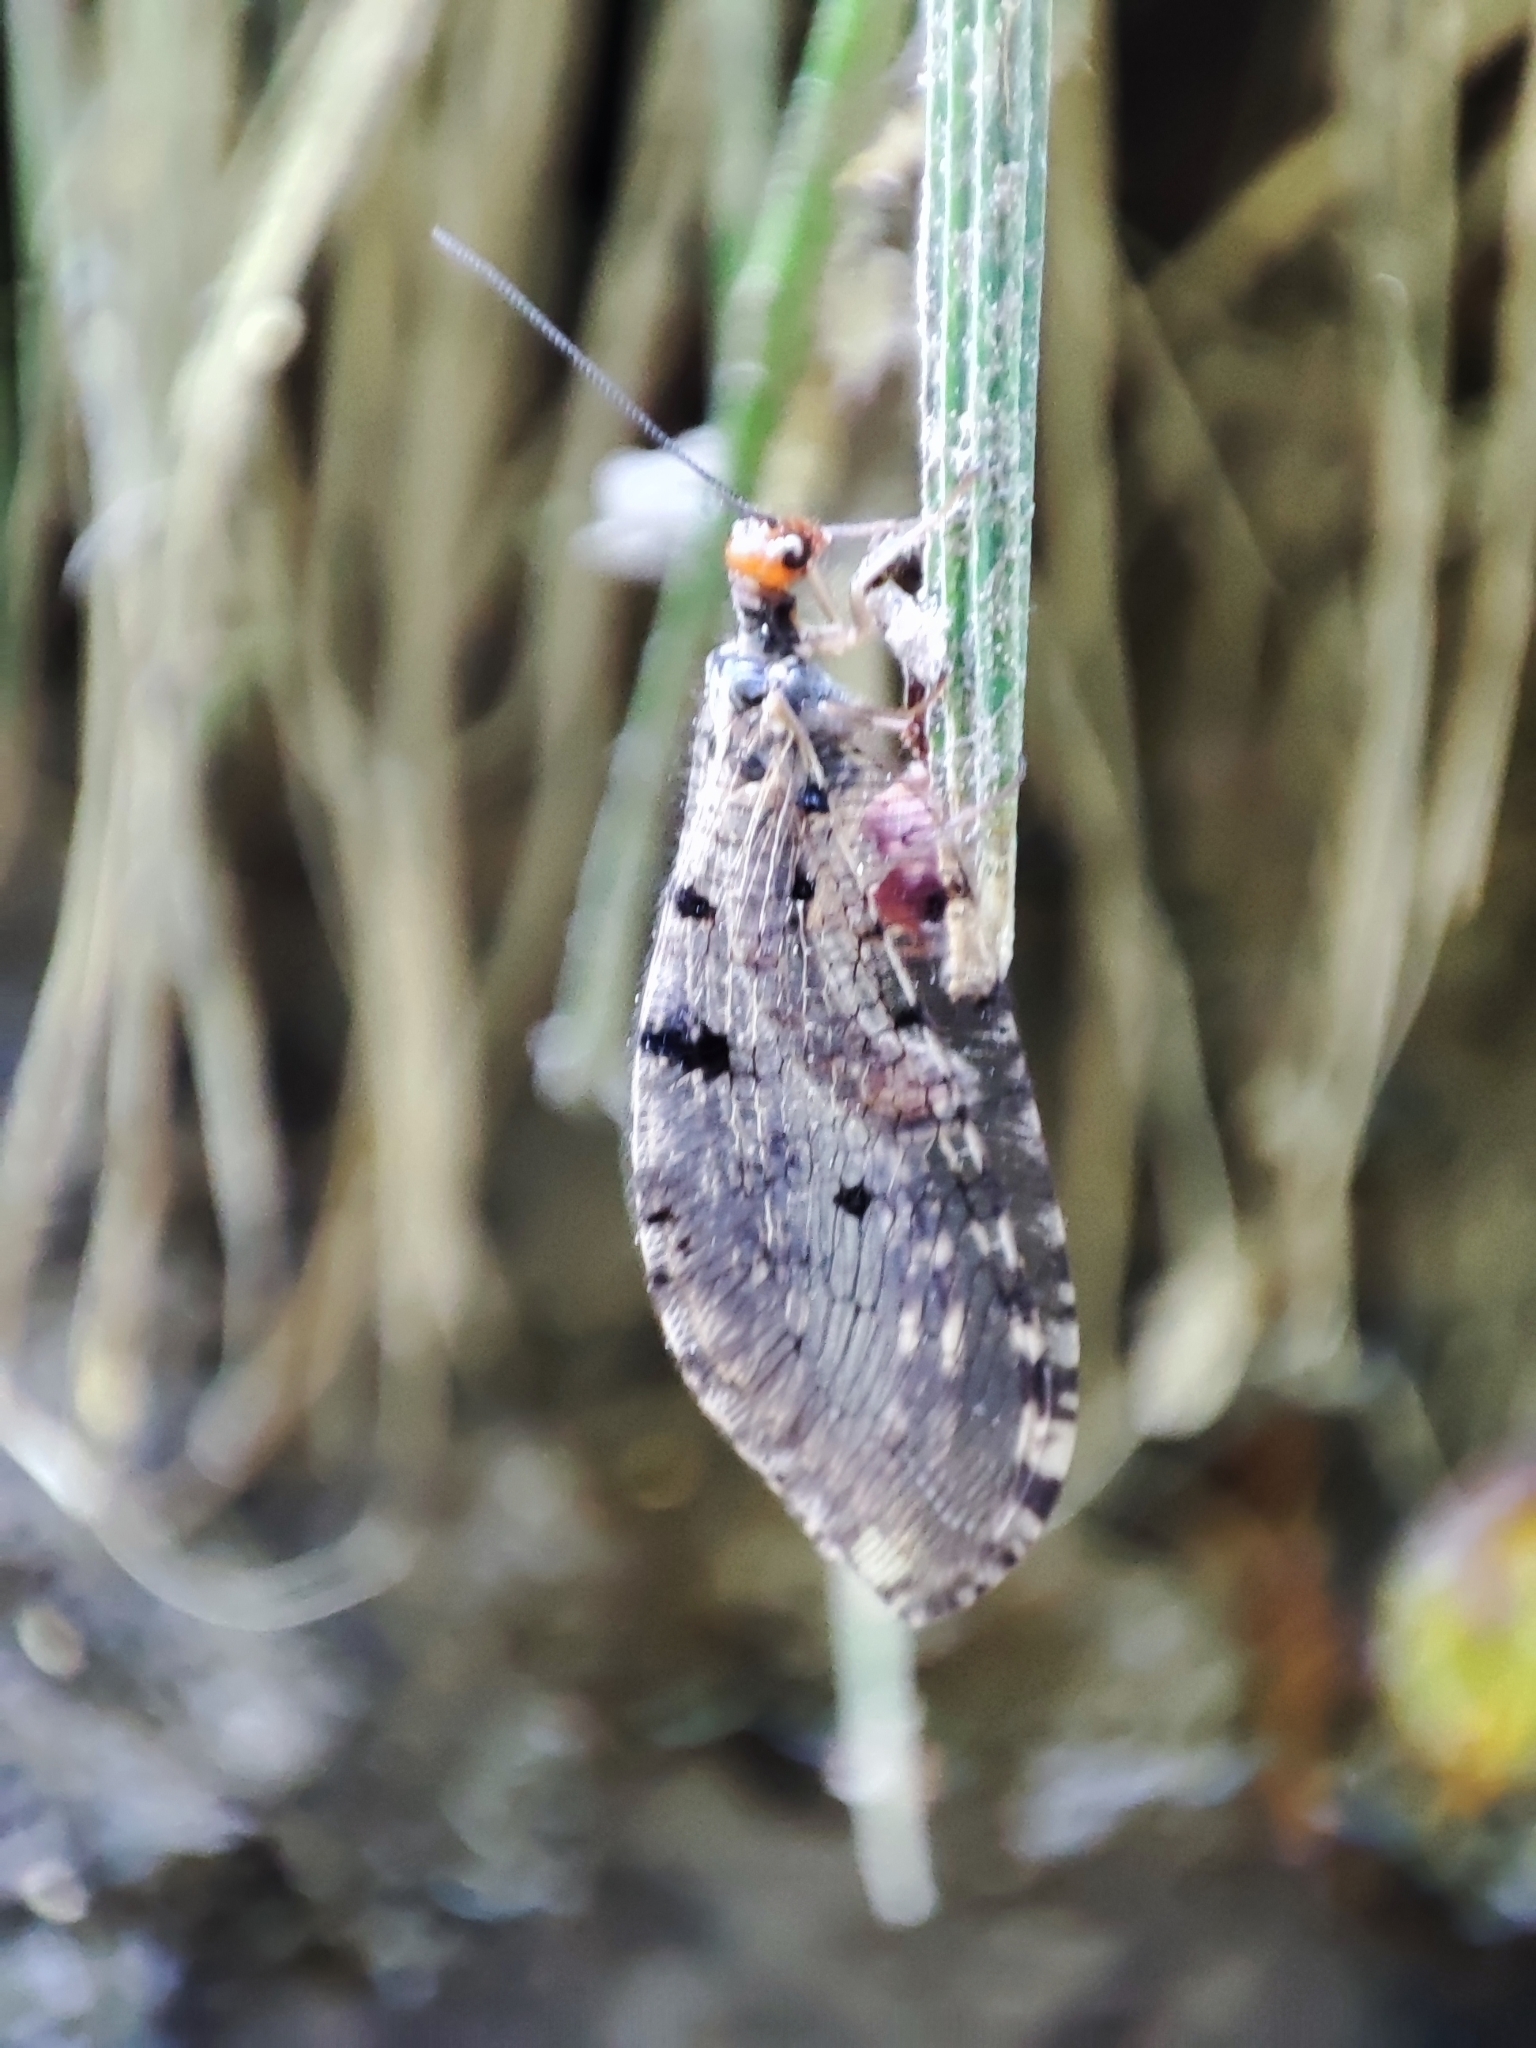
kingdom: Animalia
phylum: Arthropoda
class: Insecta
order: Neuroptera
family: Osmylidae
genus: Osmylus
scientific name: Osmylus fulvicephalus
